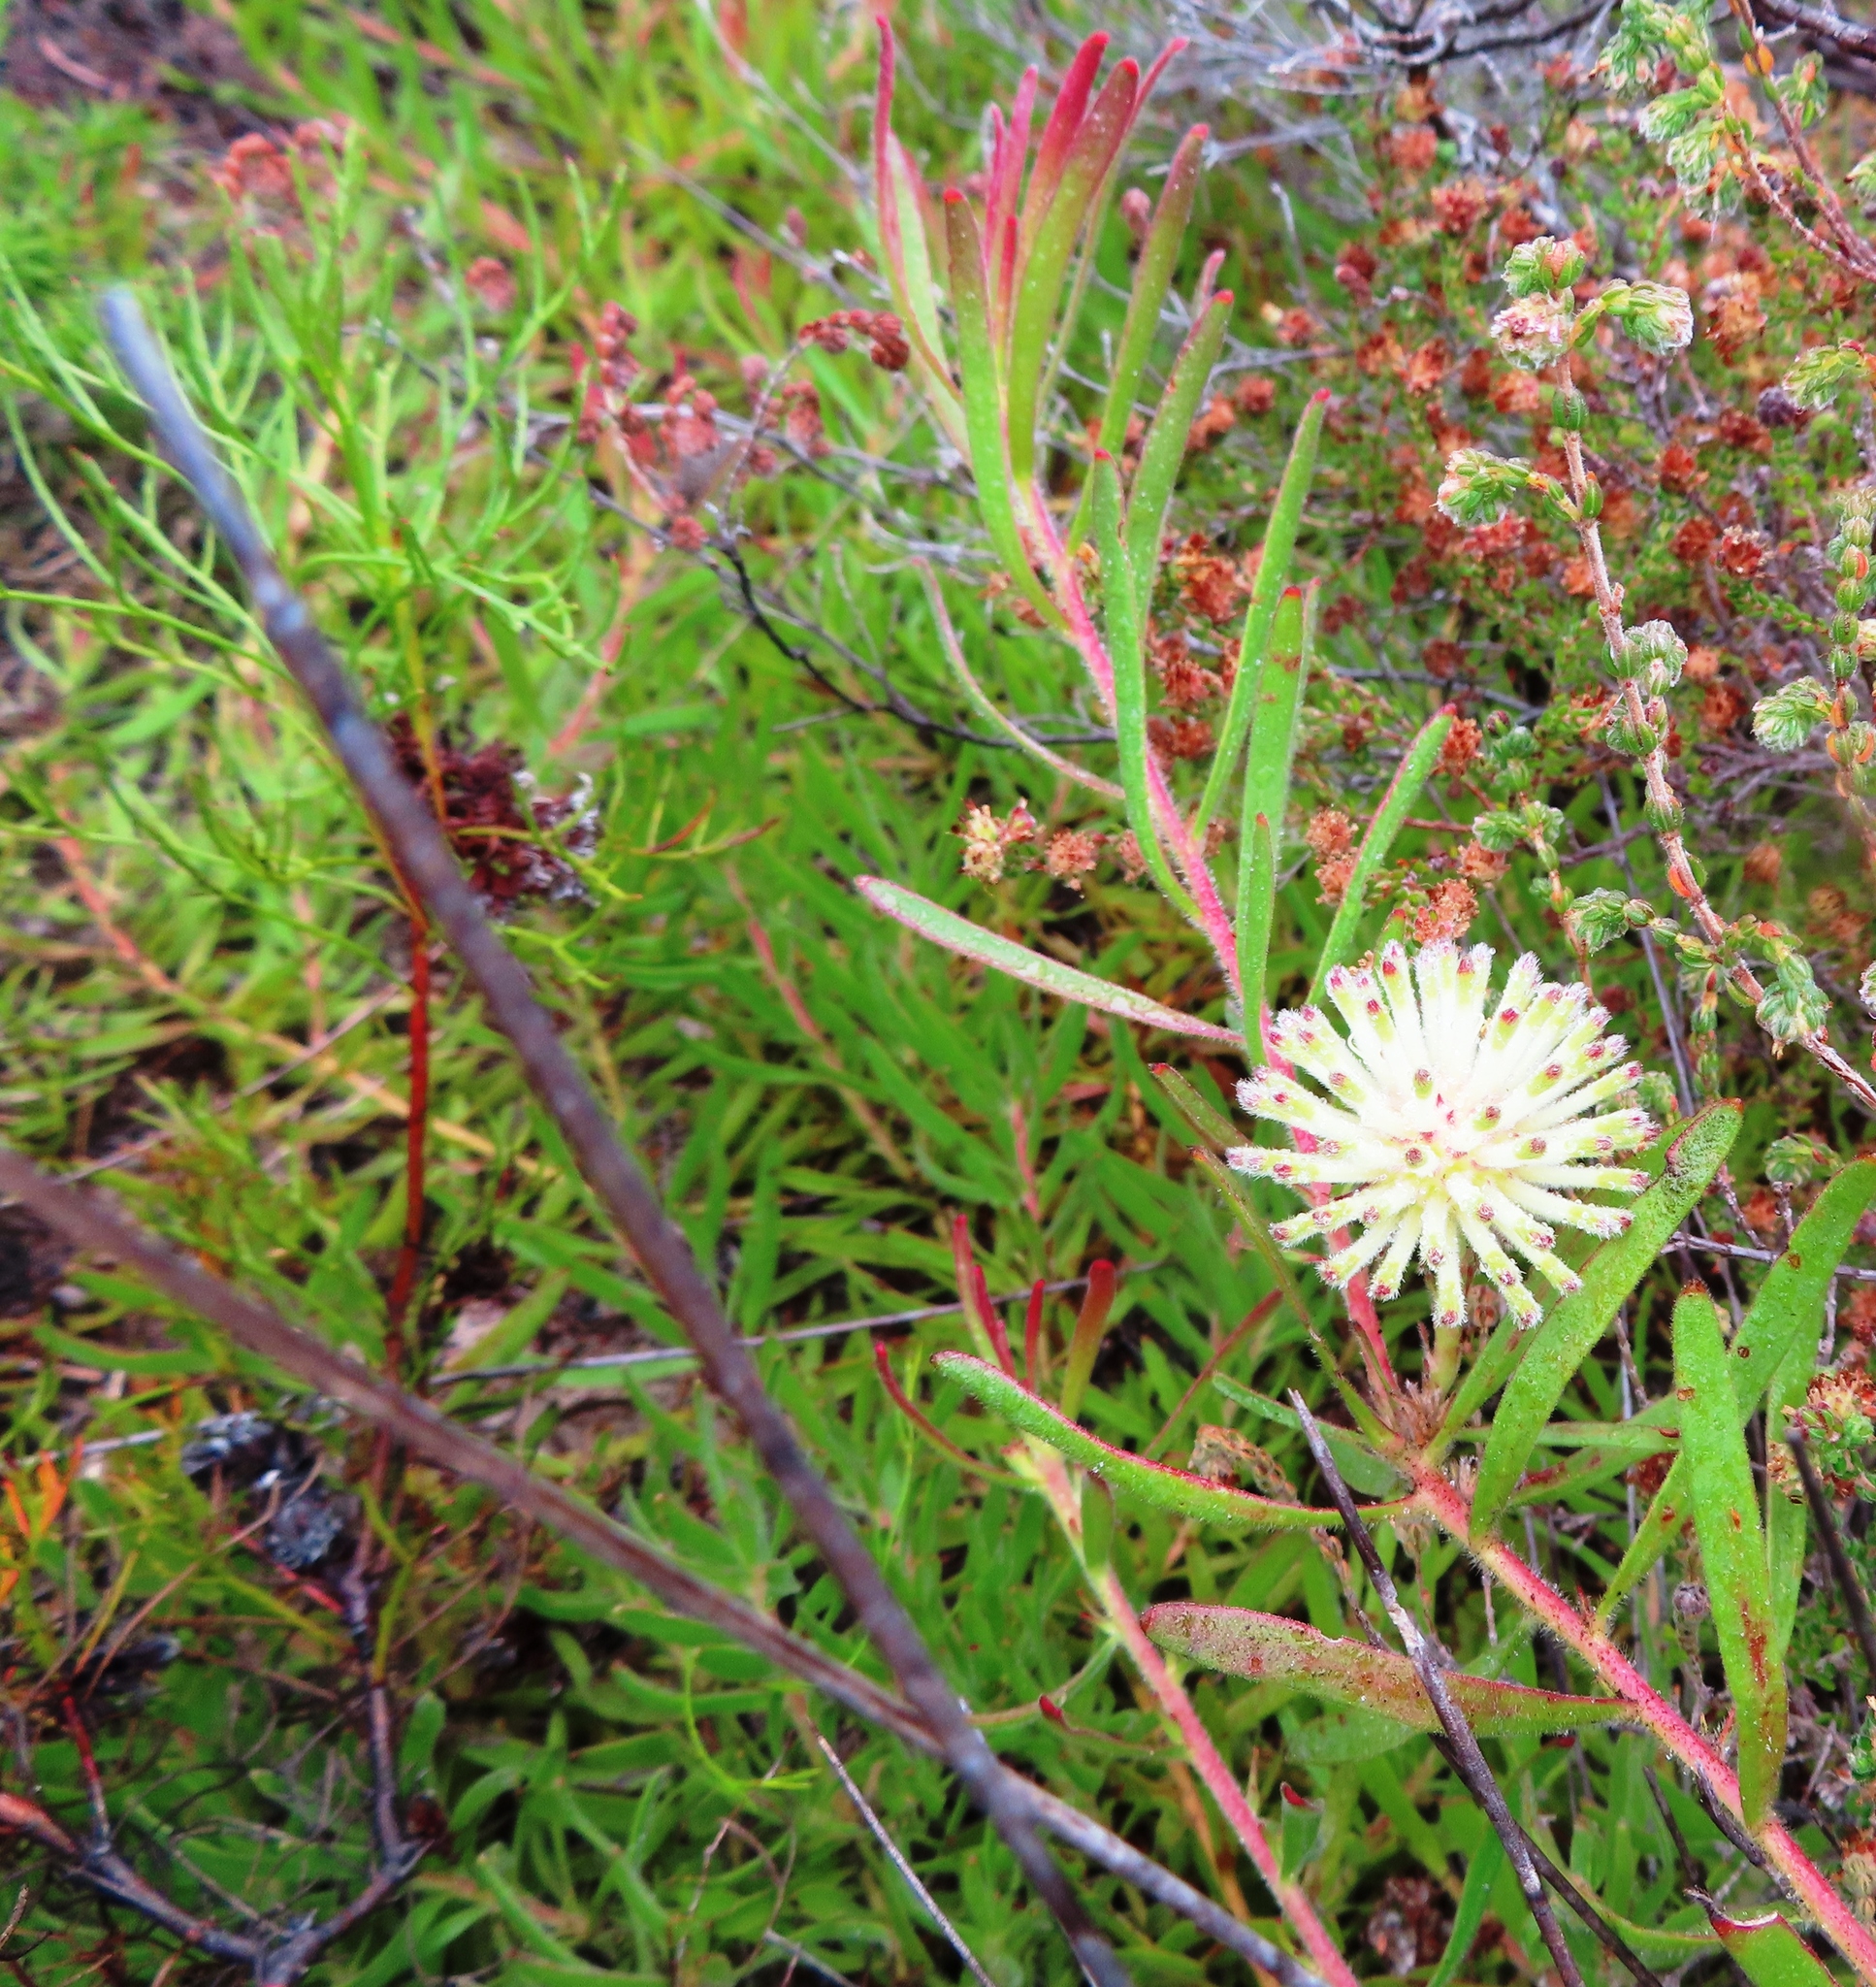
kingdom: Plantae
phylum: Tracheophyta
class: Magnoliopsida
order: Proteales
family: Proteaceae
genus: Leucospermum
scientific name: Leucospermum pedunculatum
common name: White-trailing pincushion
